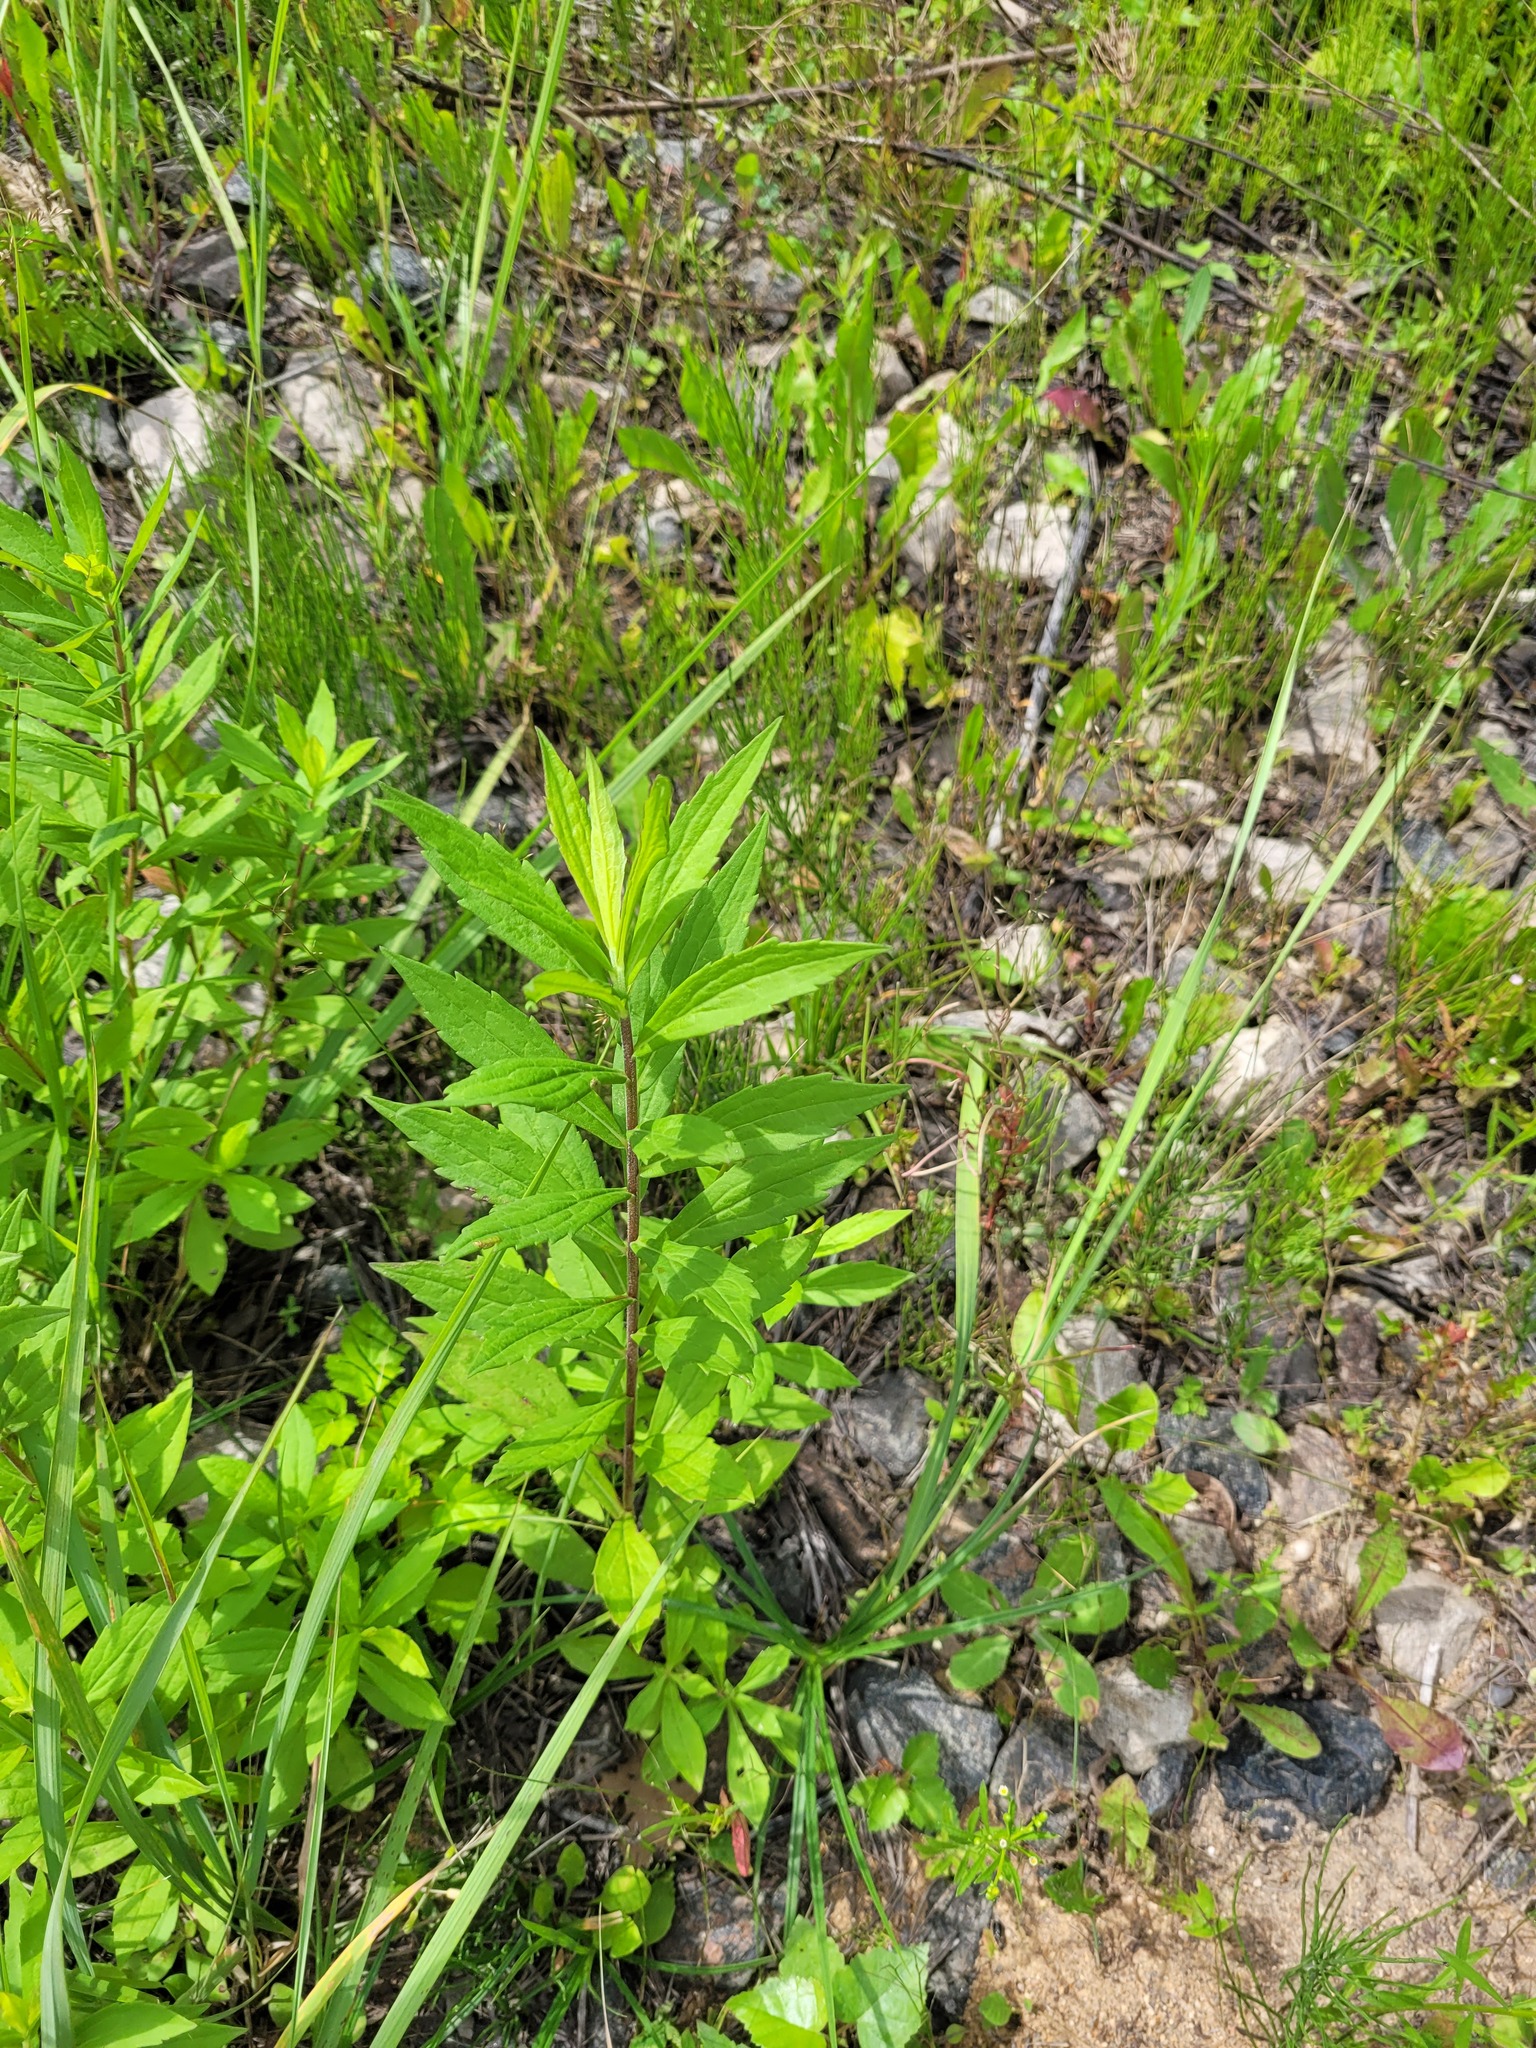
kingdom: Plantae
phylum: Tracheophyta
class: Magnoliopsida
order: Asterales
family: Asteraceae
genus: Solidago
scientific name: Solidago canadensis
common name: Canada goldenrod
